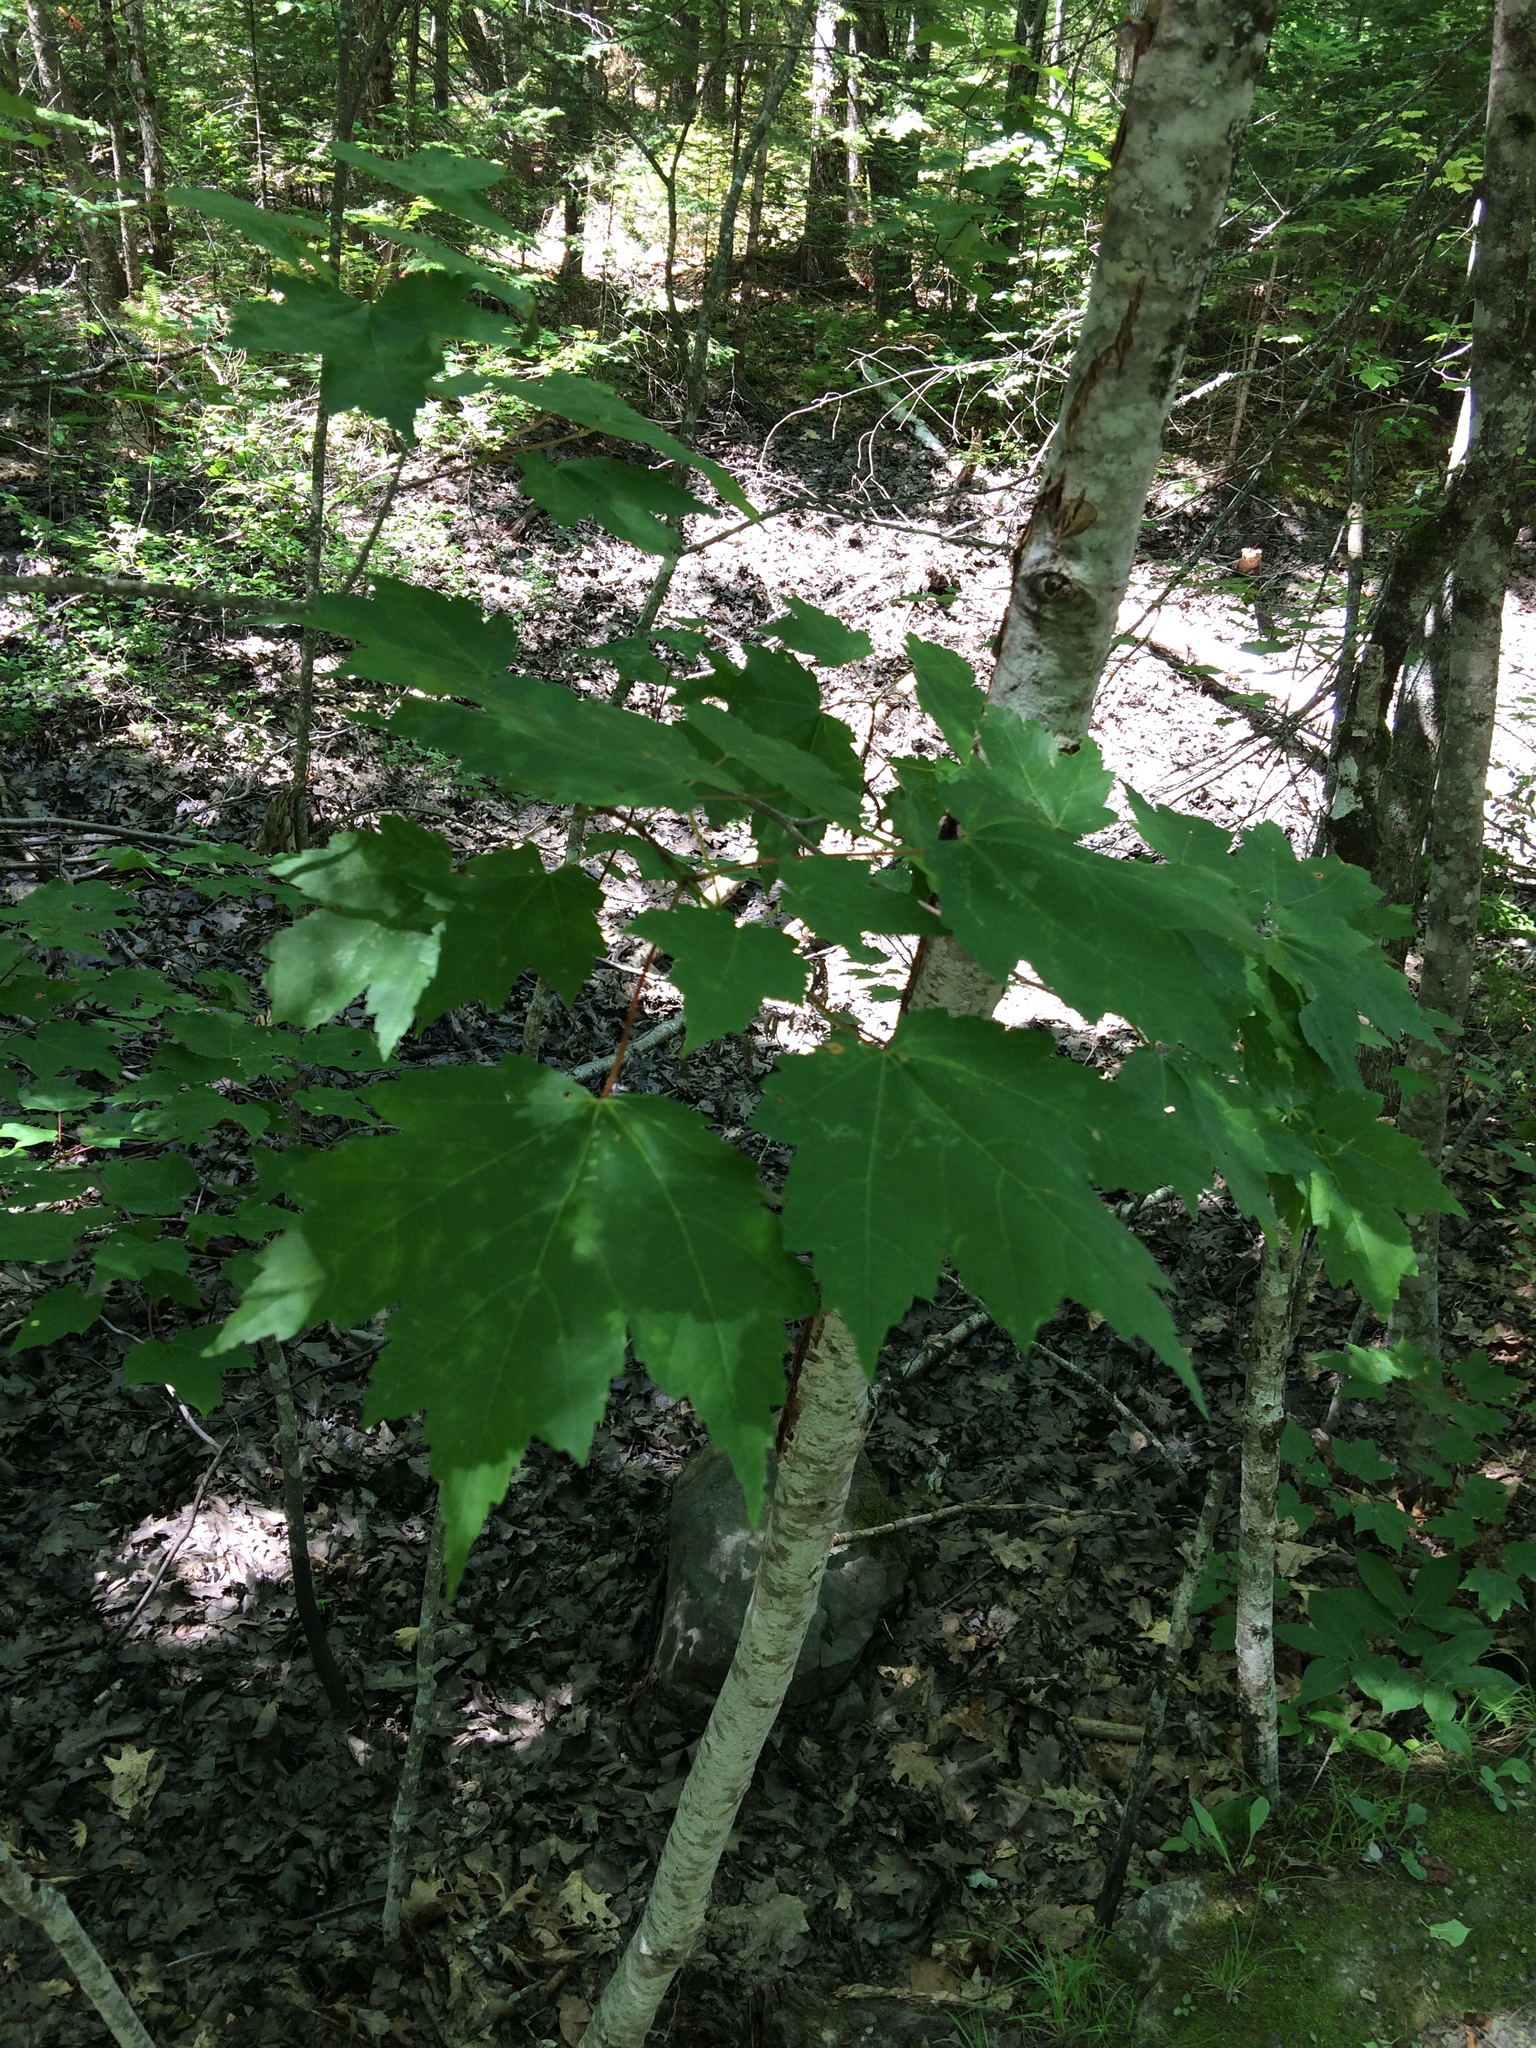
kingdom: Plantae
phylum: Tracheophyta
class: Magnoliopsida
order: Sapindales
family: Sapindaceae
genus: Acer
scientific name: Acer rubrum
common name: Red maple
